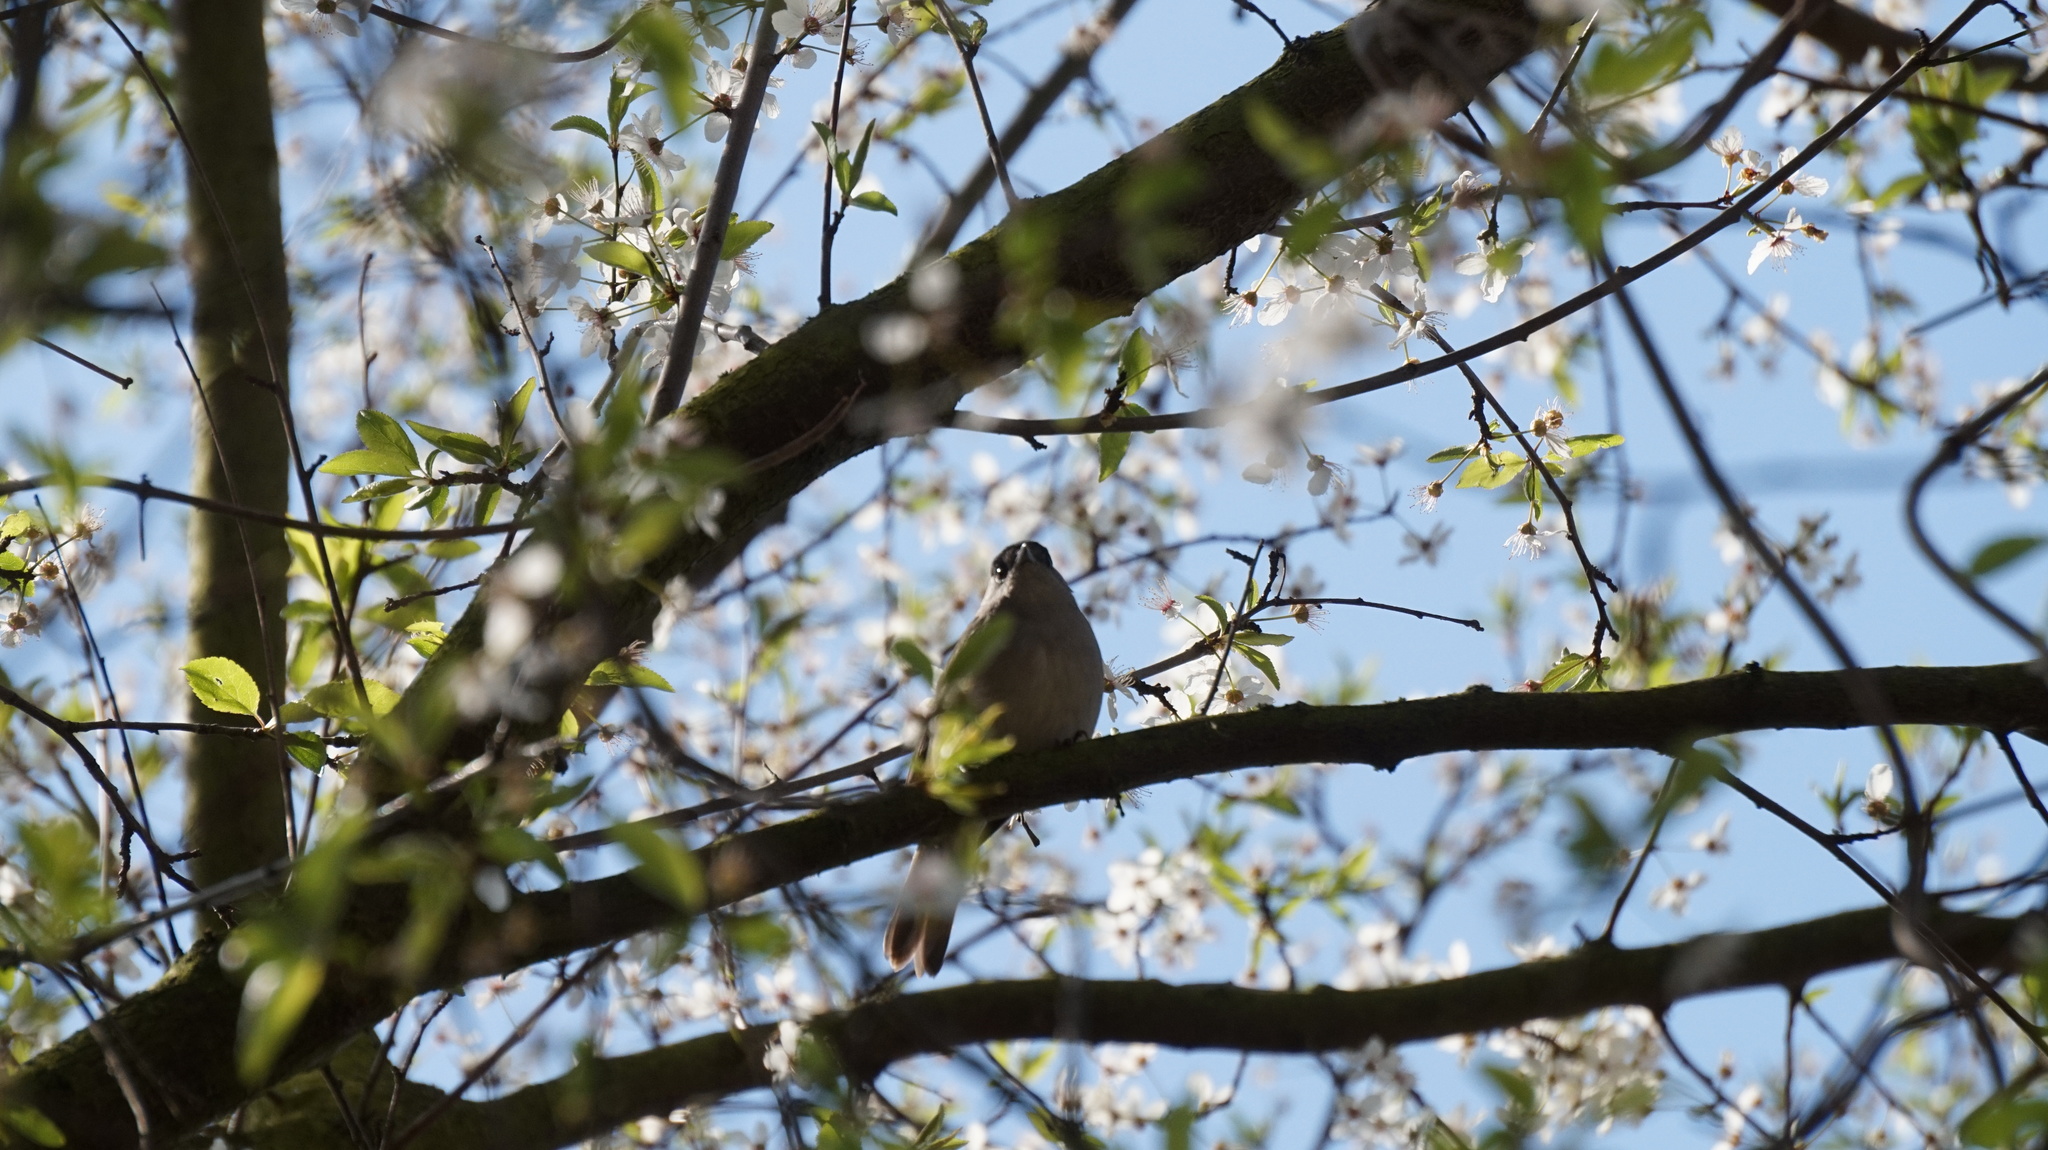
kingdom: Animalia
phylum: Chordata
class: Aves
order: Passeriformes
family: Sylviidae
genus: Sylvia
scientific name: Sylvia atricapilla
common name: Eurasian blackcap
